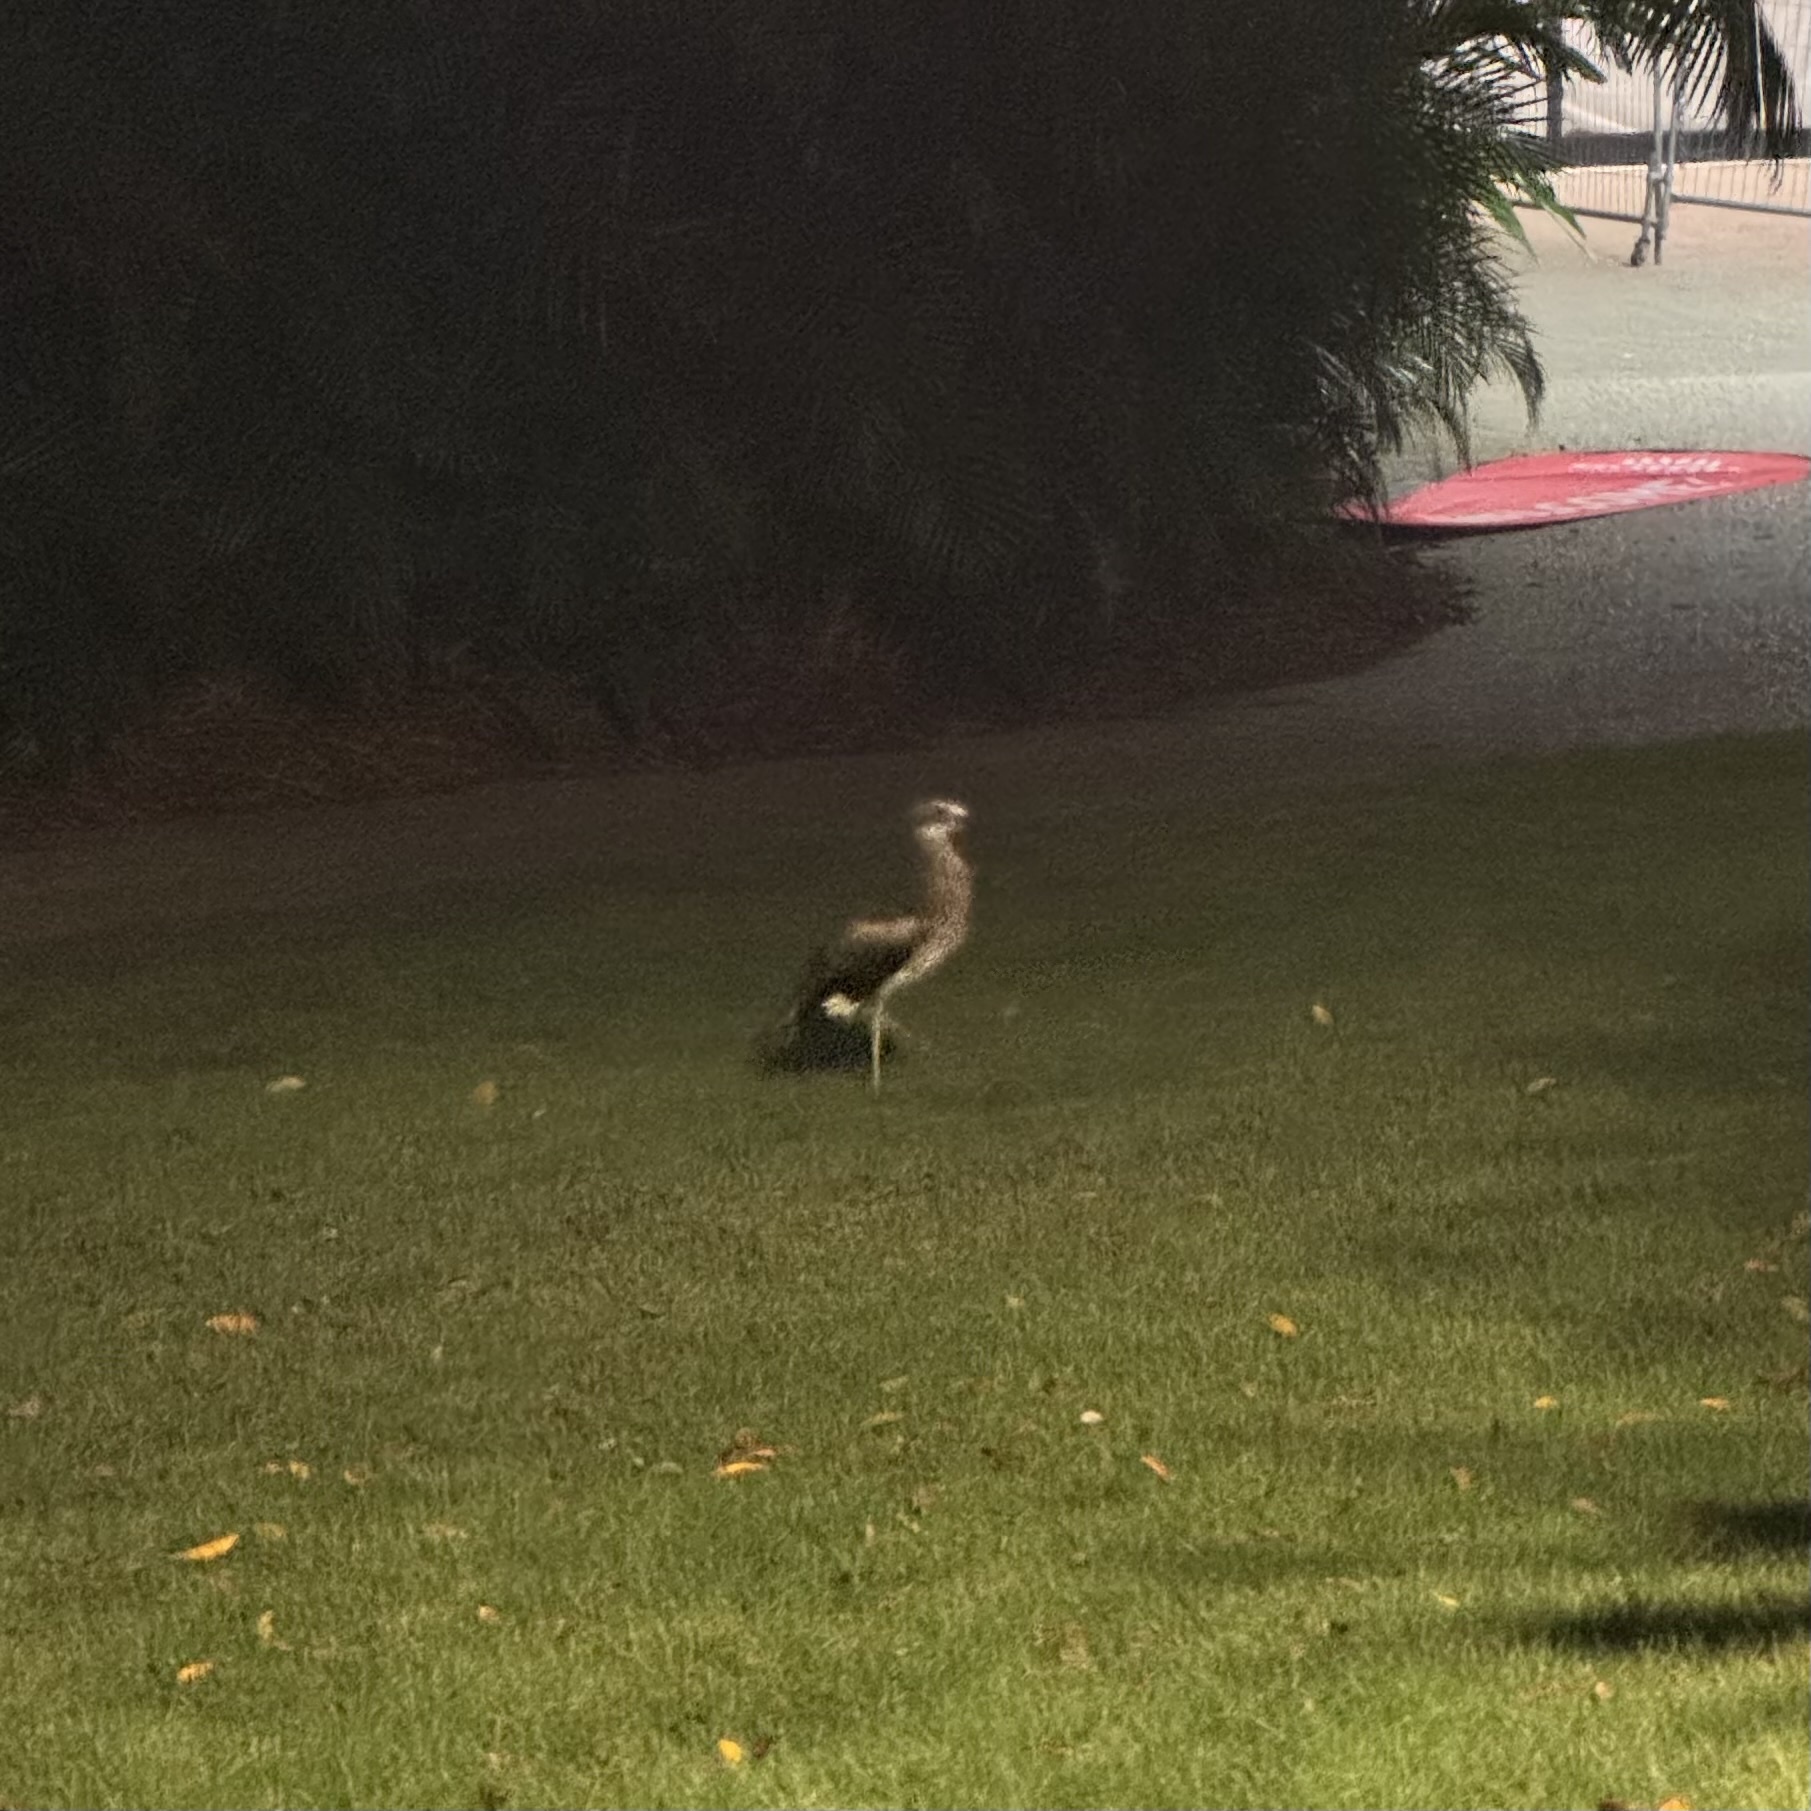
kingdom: Animalia
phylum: Chordata
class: Aves
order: Charadriiformes
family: Burhinidae
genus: Burhinus
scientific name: Burhinus grallarius
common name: Bush stone-curlew
